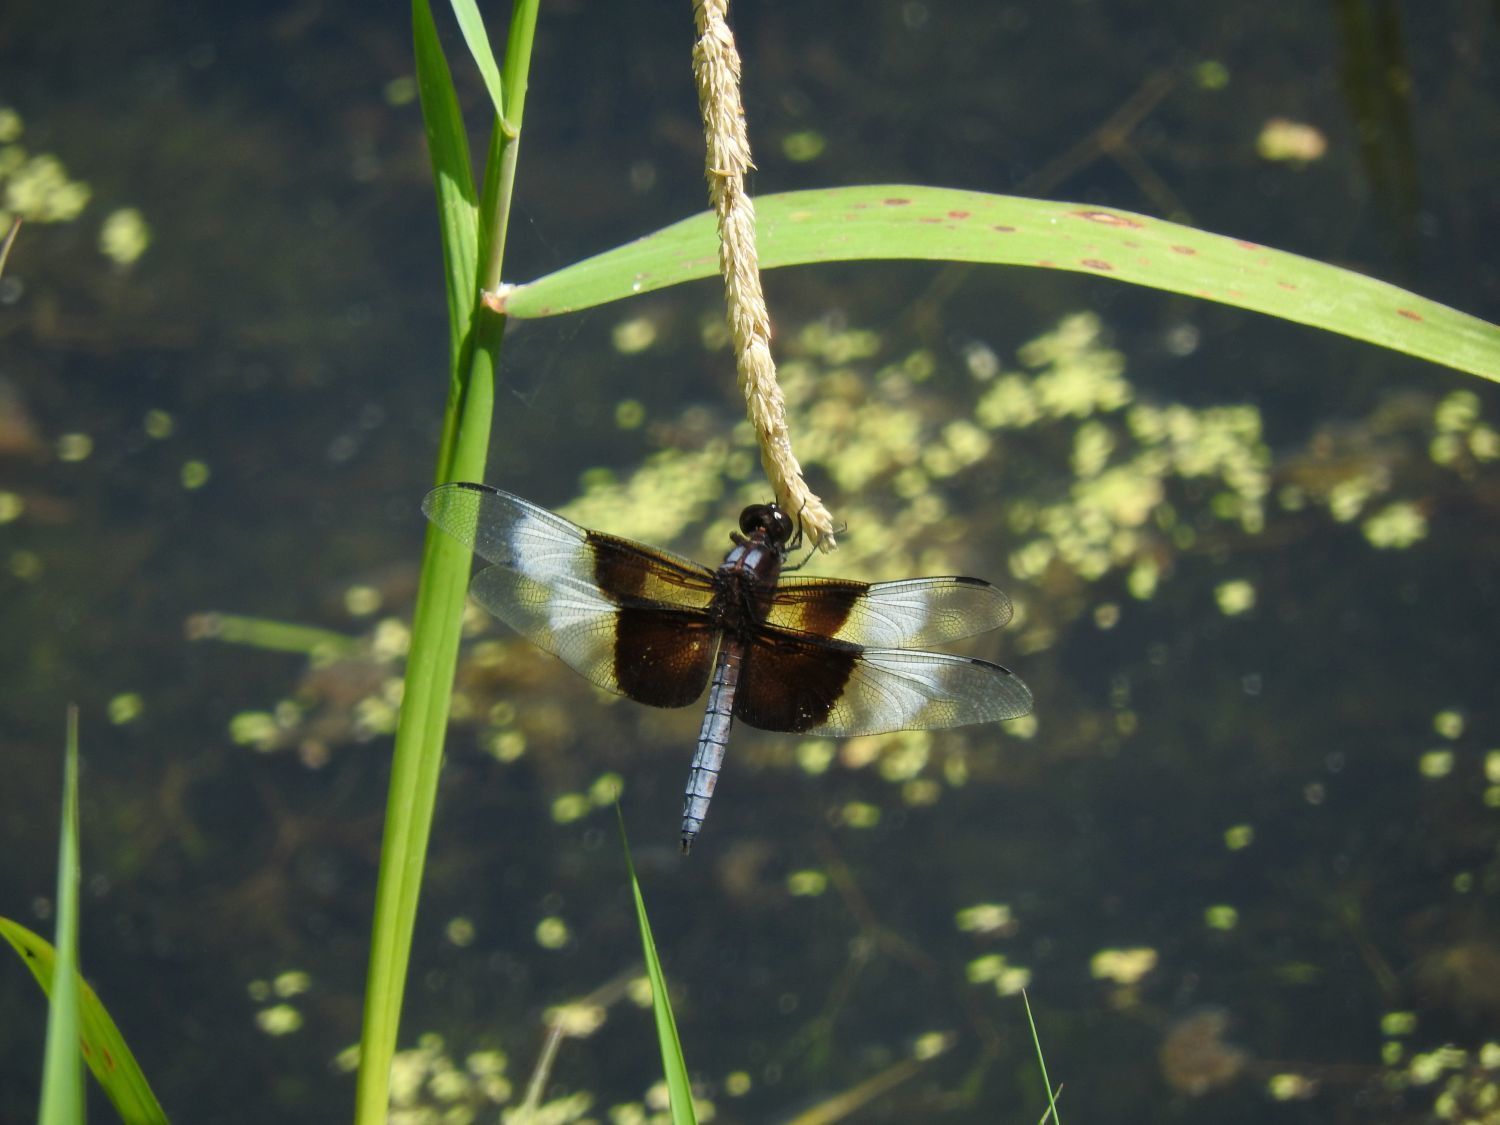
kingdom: Animalia
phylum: Arthropoda
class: Insecta
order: Odonata
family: Libellulidae
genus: Libellula
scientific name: Libellula luctuosa
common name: Widow skimmer
